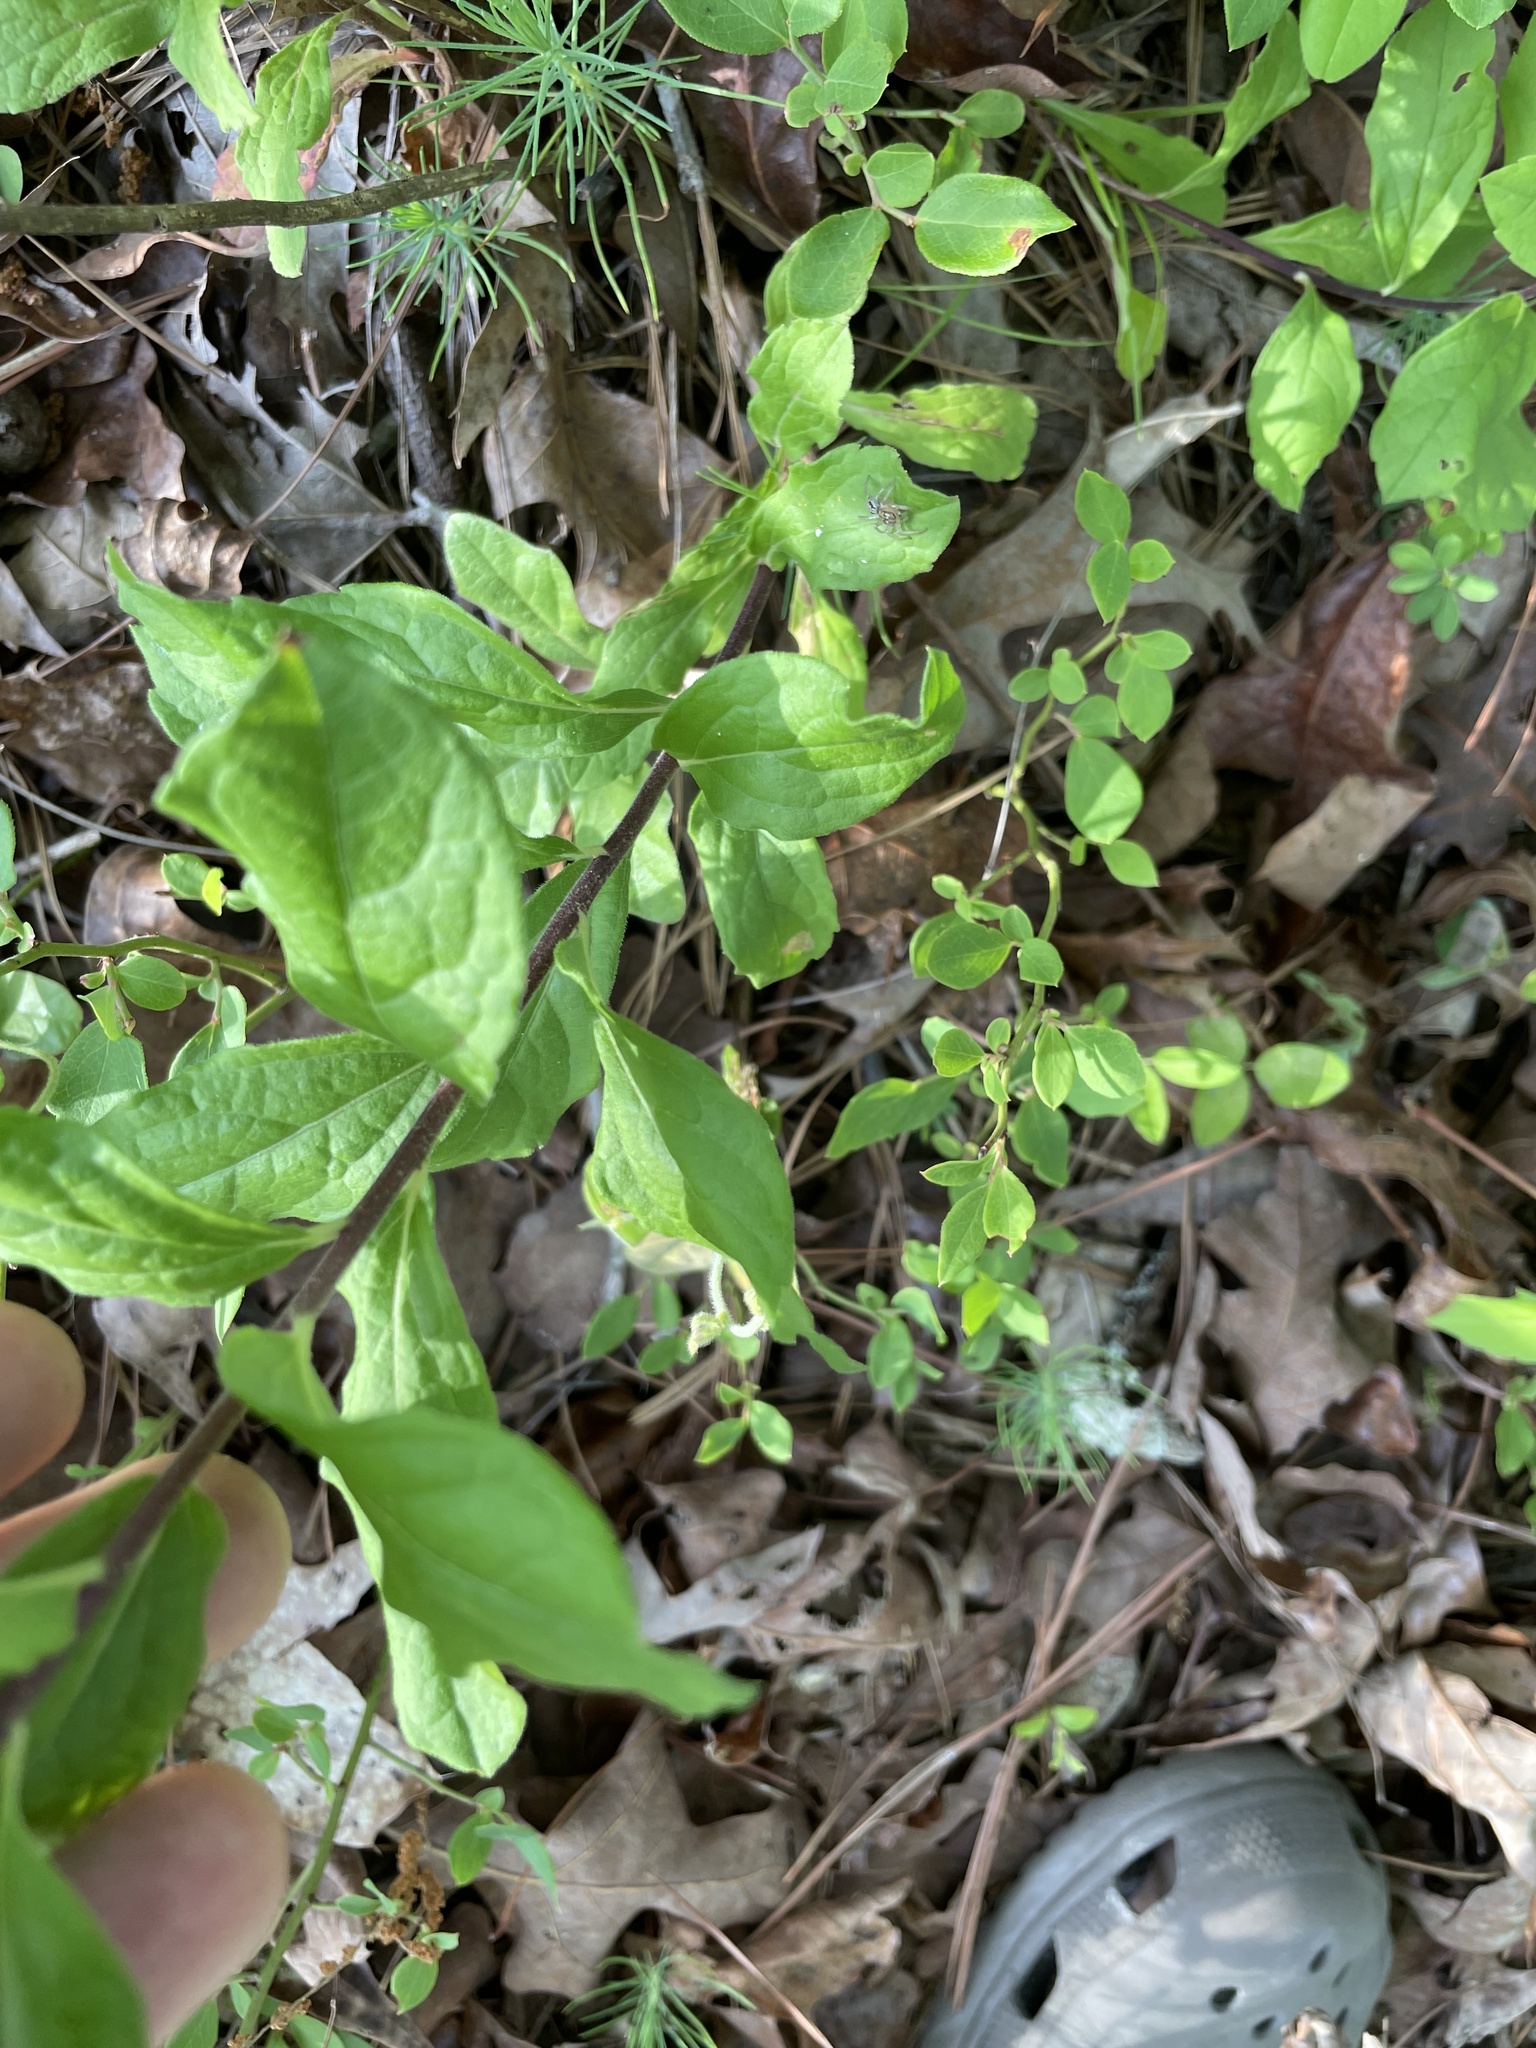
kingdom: Plantae
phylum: Tracheophyta
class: Magnoliopsida
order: Asterales
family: Asteraceae
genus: Solidago
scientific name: Solidago petiolaris
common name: Downy ragged goldenrod
